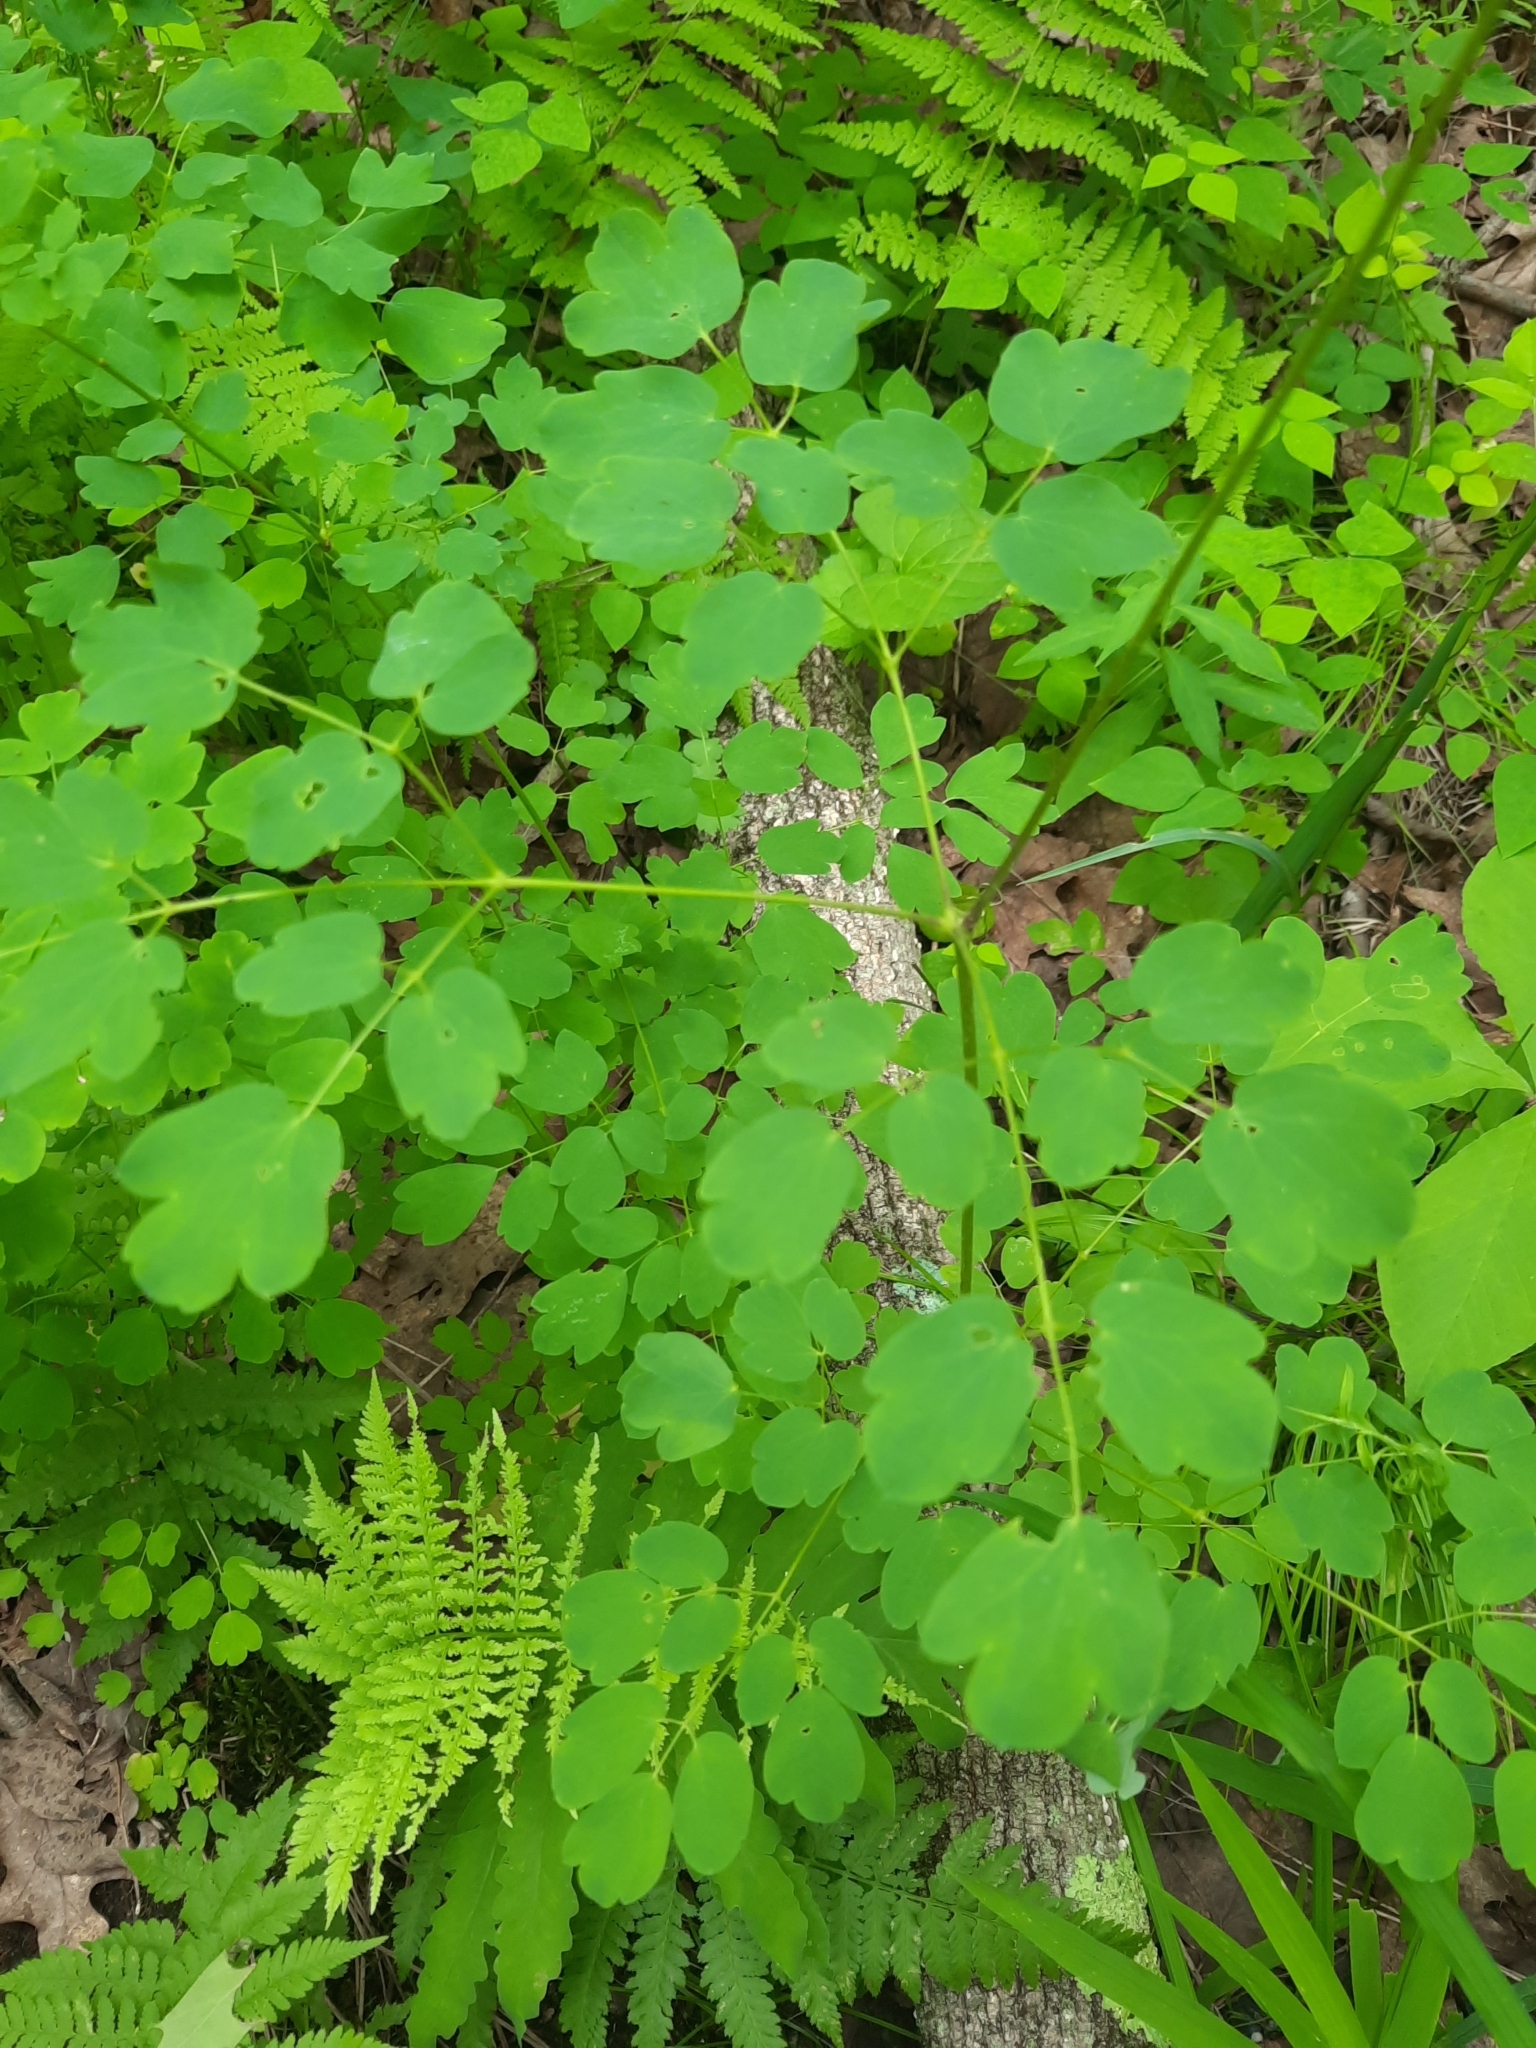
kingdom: Plantae
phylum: Tracheophyta
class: Magnoliopsida
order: Ranunculales
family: Ranunculaceae
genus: Thalictrum
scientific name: Thalictrum pubescens
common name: King-of-the-meadow
